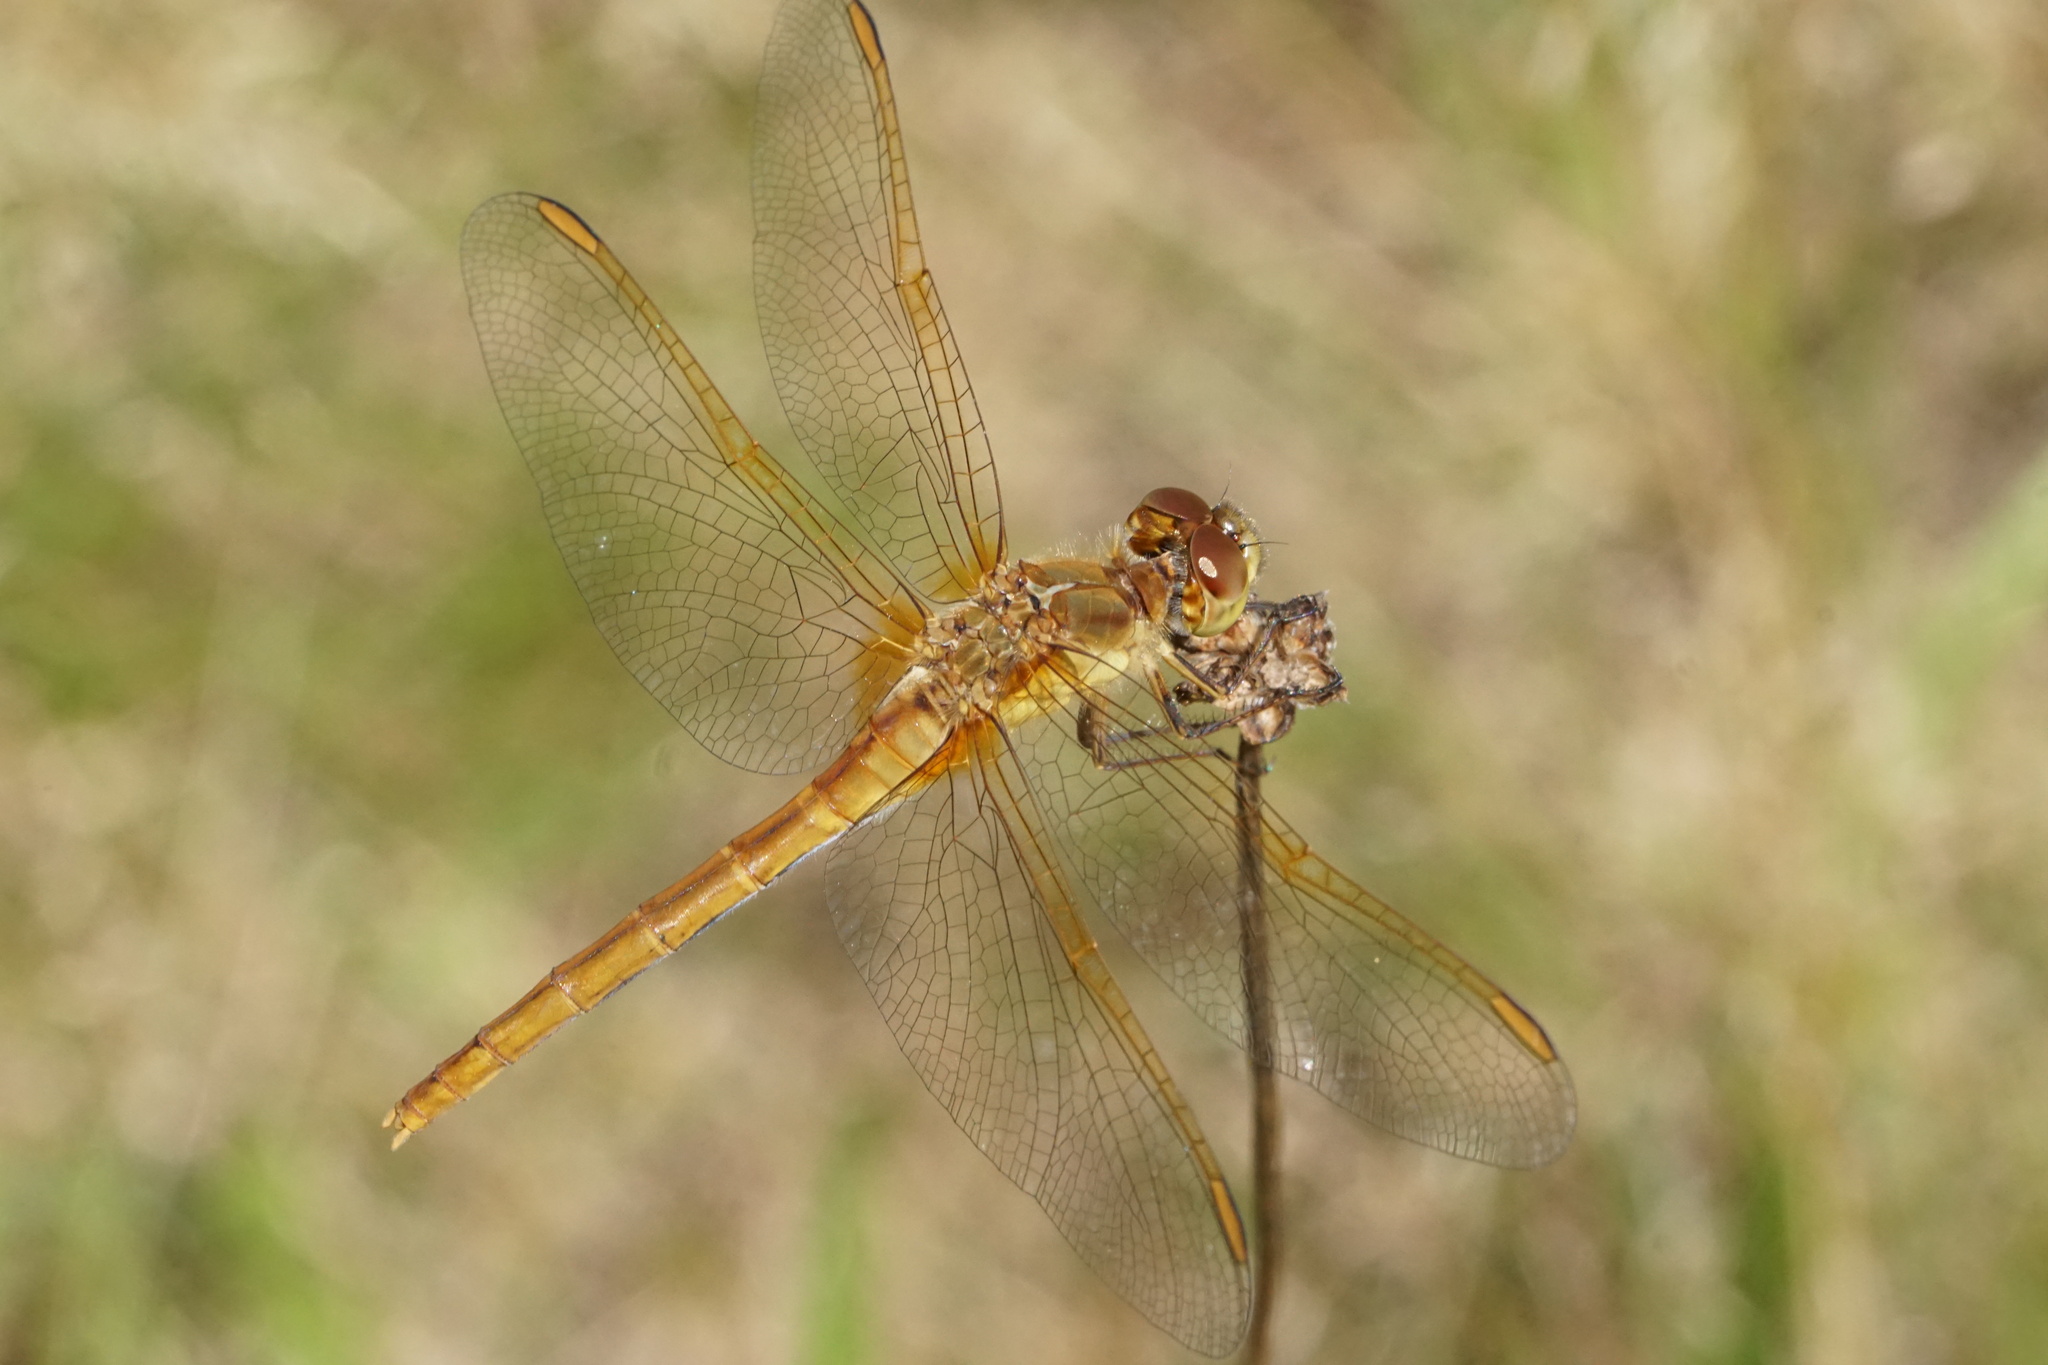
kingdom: Animalia
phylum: Arthropoda
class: Insecta
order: Odonata
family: Libellulidae
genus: Sympetrum
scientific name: Sympetrum costiferum
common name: Saffron-winged meadowhawk
